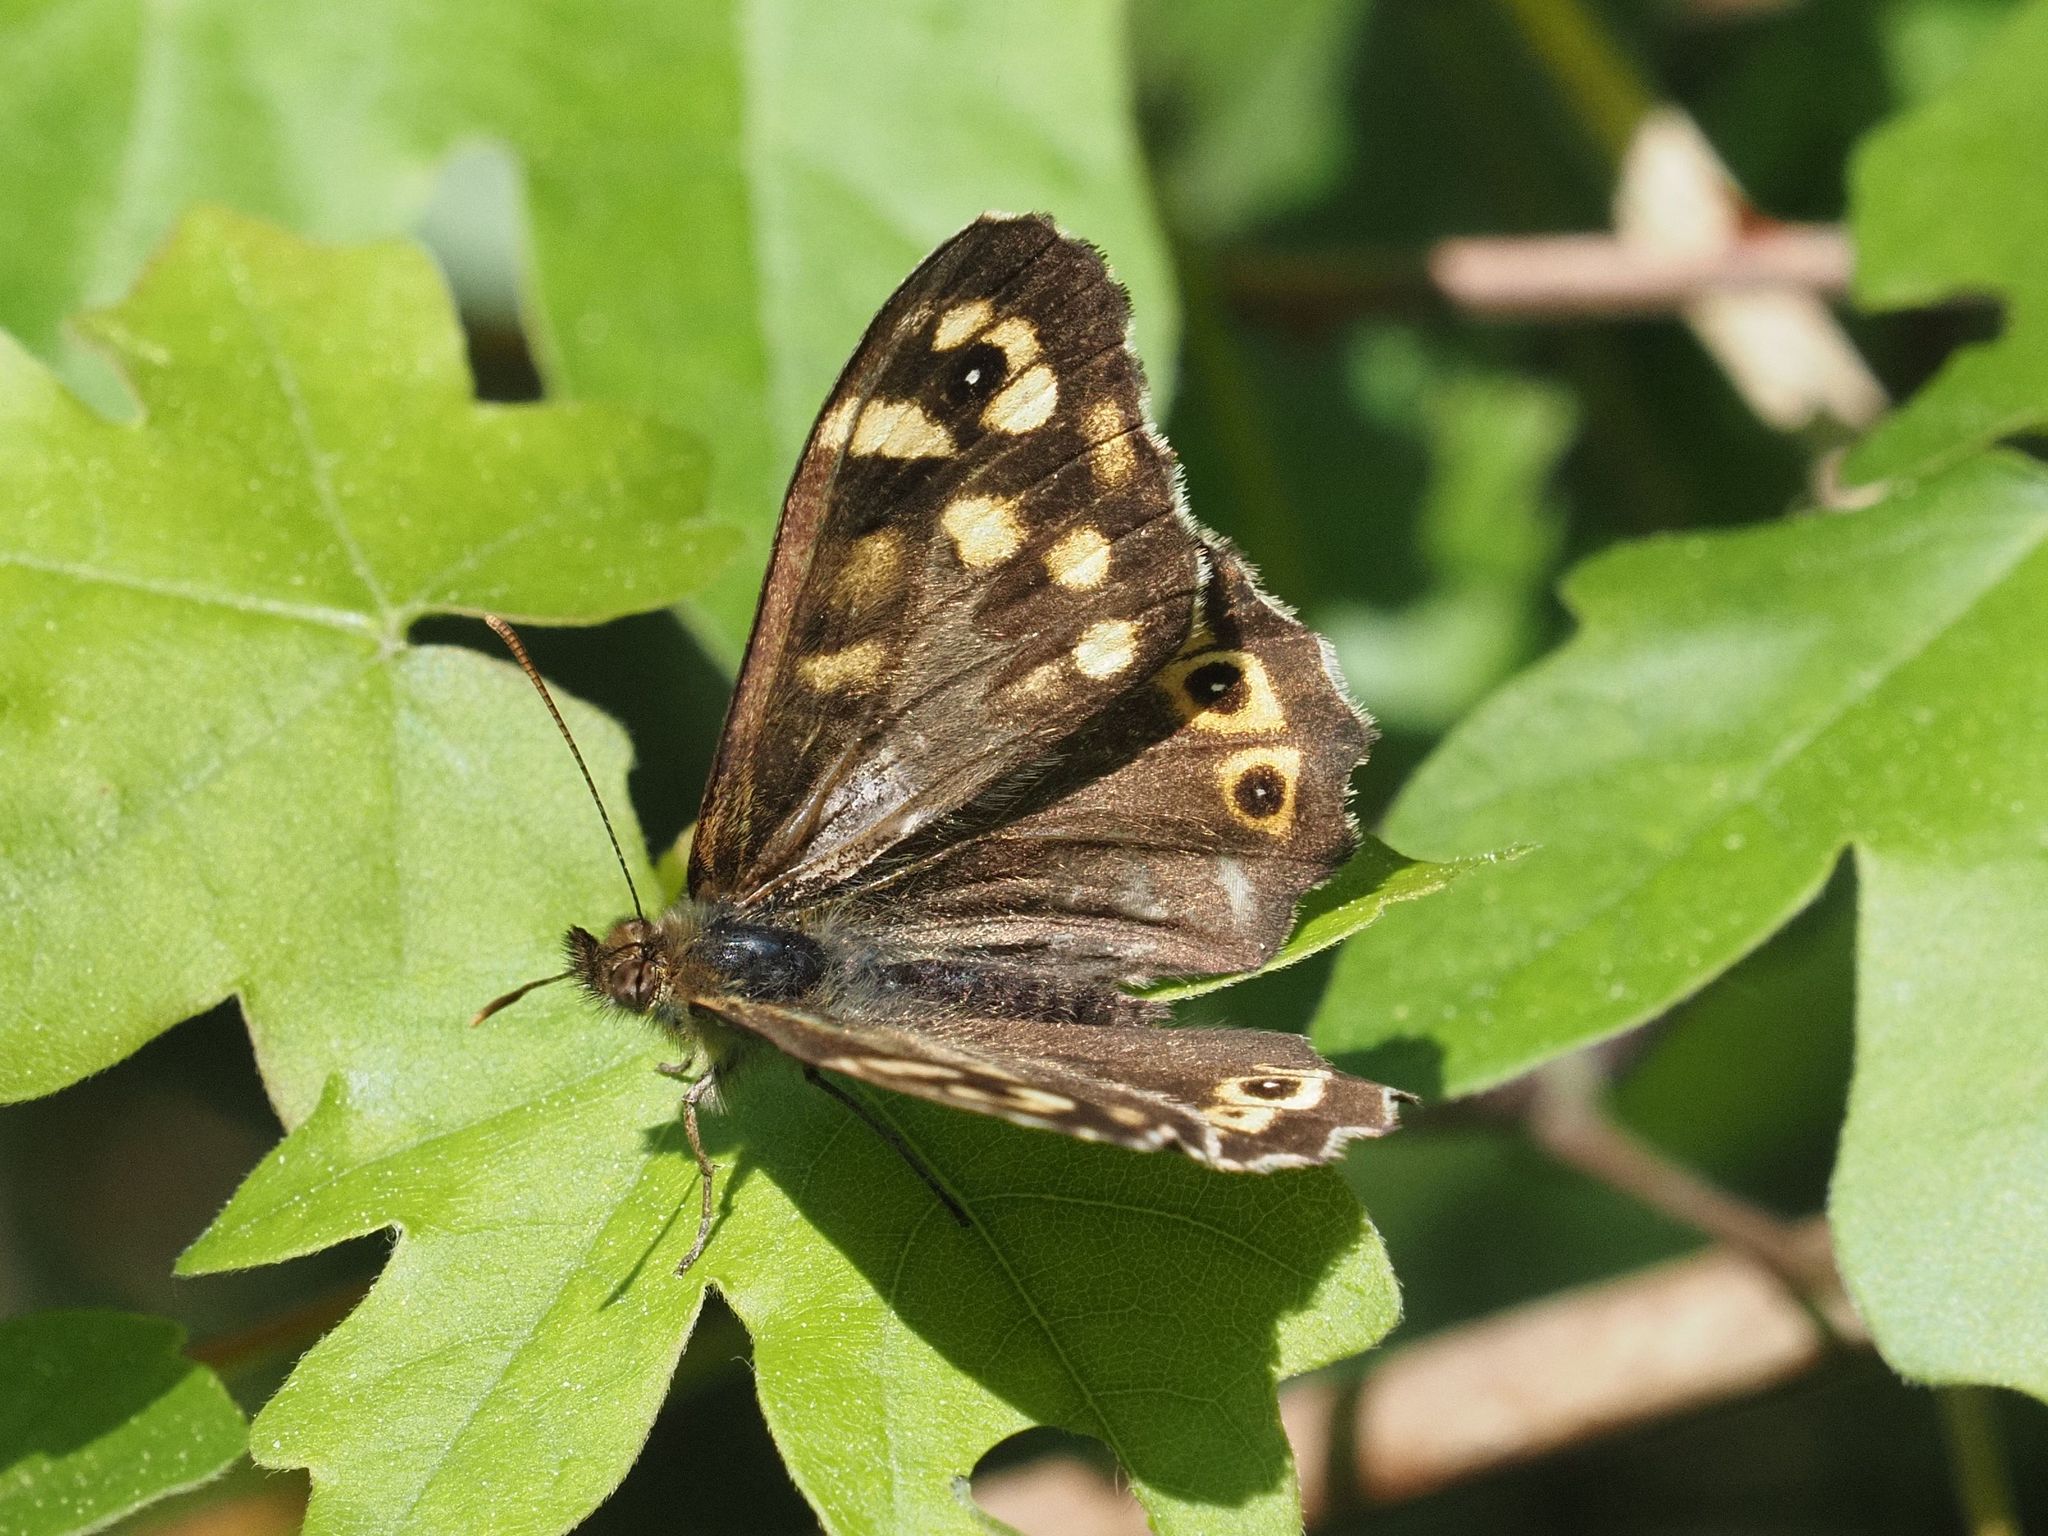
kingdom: Animalia
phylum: Arthropoda
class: Insecta
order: Lepidoptera
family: Nymphalidae
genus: Pararge
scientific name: Pararge aegeria
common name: Speckled wood
